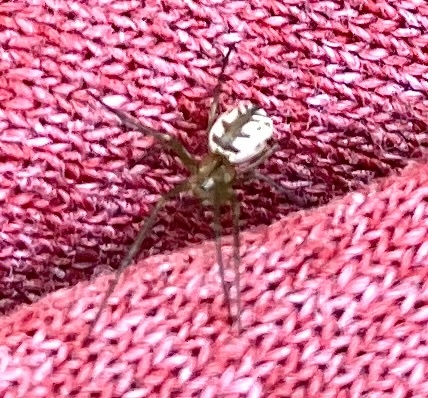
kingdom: Animalia
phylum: Arthropoda
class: Arachnida
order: Araneae
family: Tetragnathidae
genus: Leucauge
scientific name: Leucauge venusta
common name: Longjawed orb weavers
